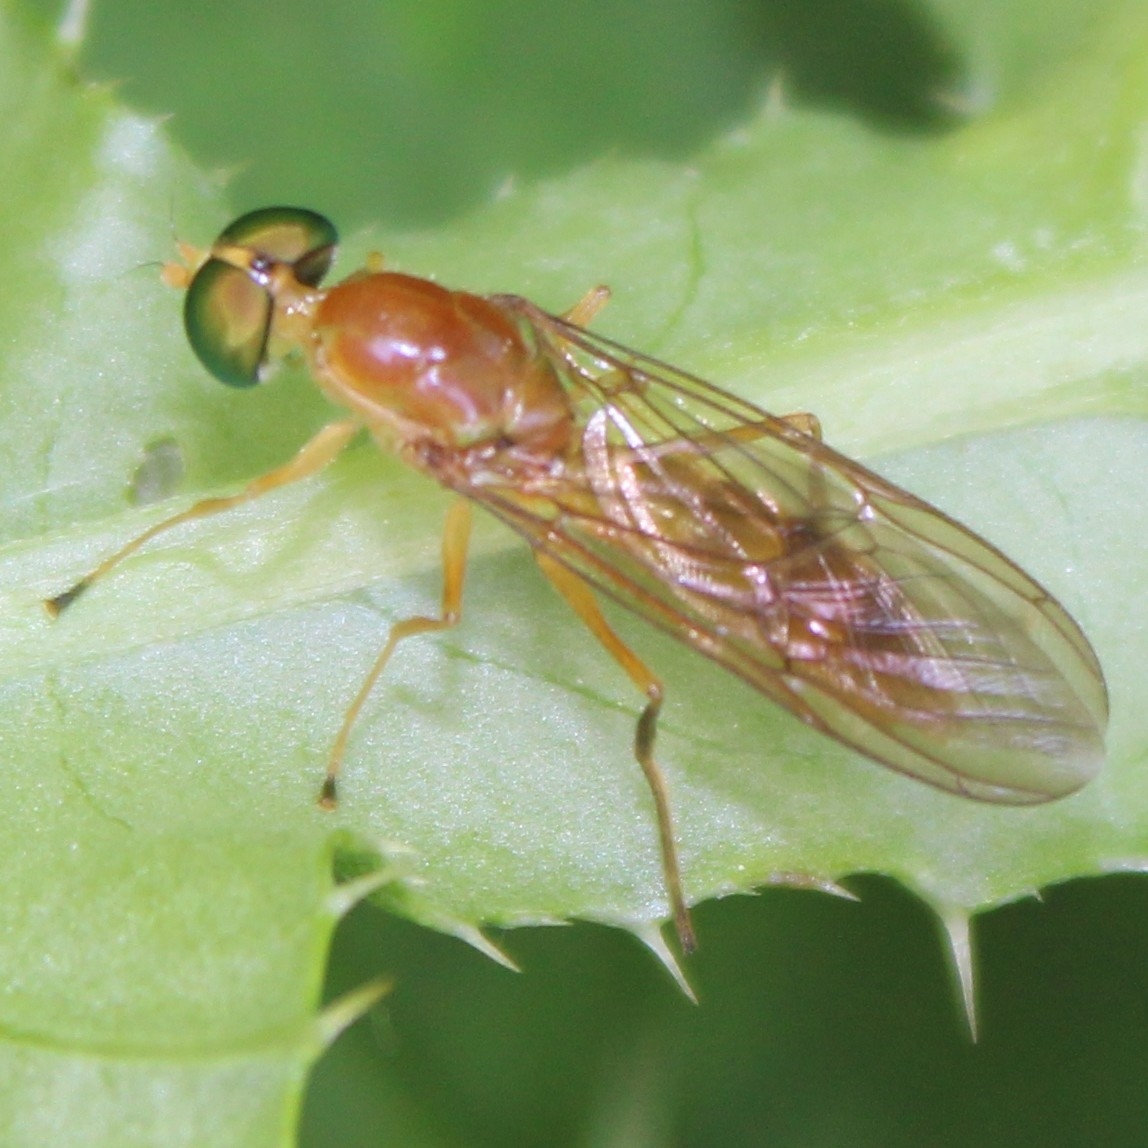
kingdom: Animalia
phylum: Arthropoda
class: Insecta
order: Diptera
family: Stratiomyidae
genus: Ptecticus
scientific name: Ptecticus trivittatus
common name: Compost fly
